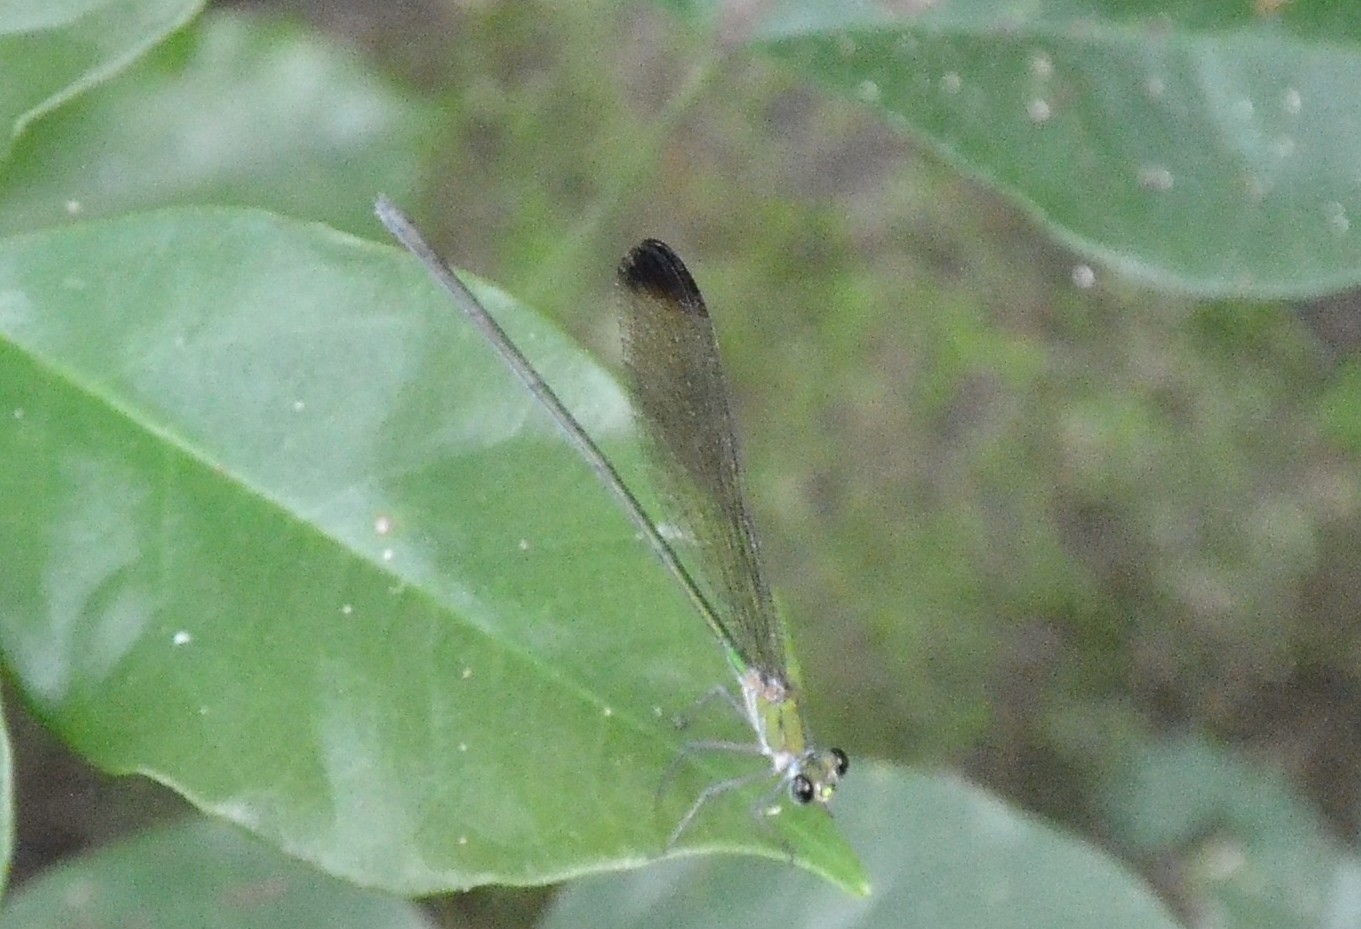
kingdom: Animalia
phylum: Arthropoda
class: Insecta
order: Odonata
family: Calopterygidae
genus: Vestalis
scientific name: Vestalis apicalis
